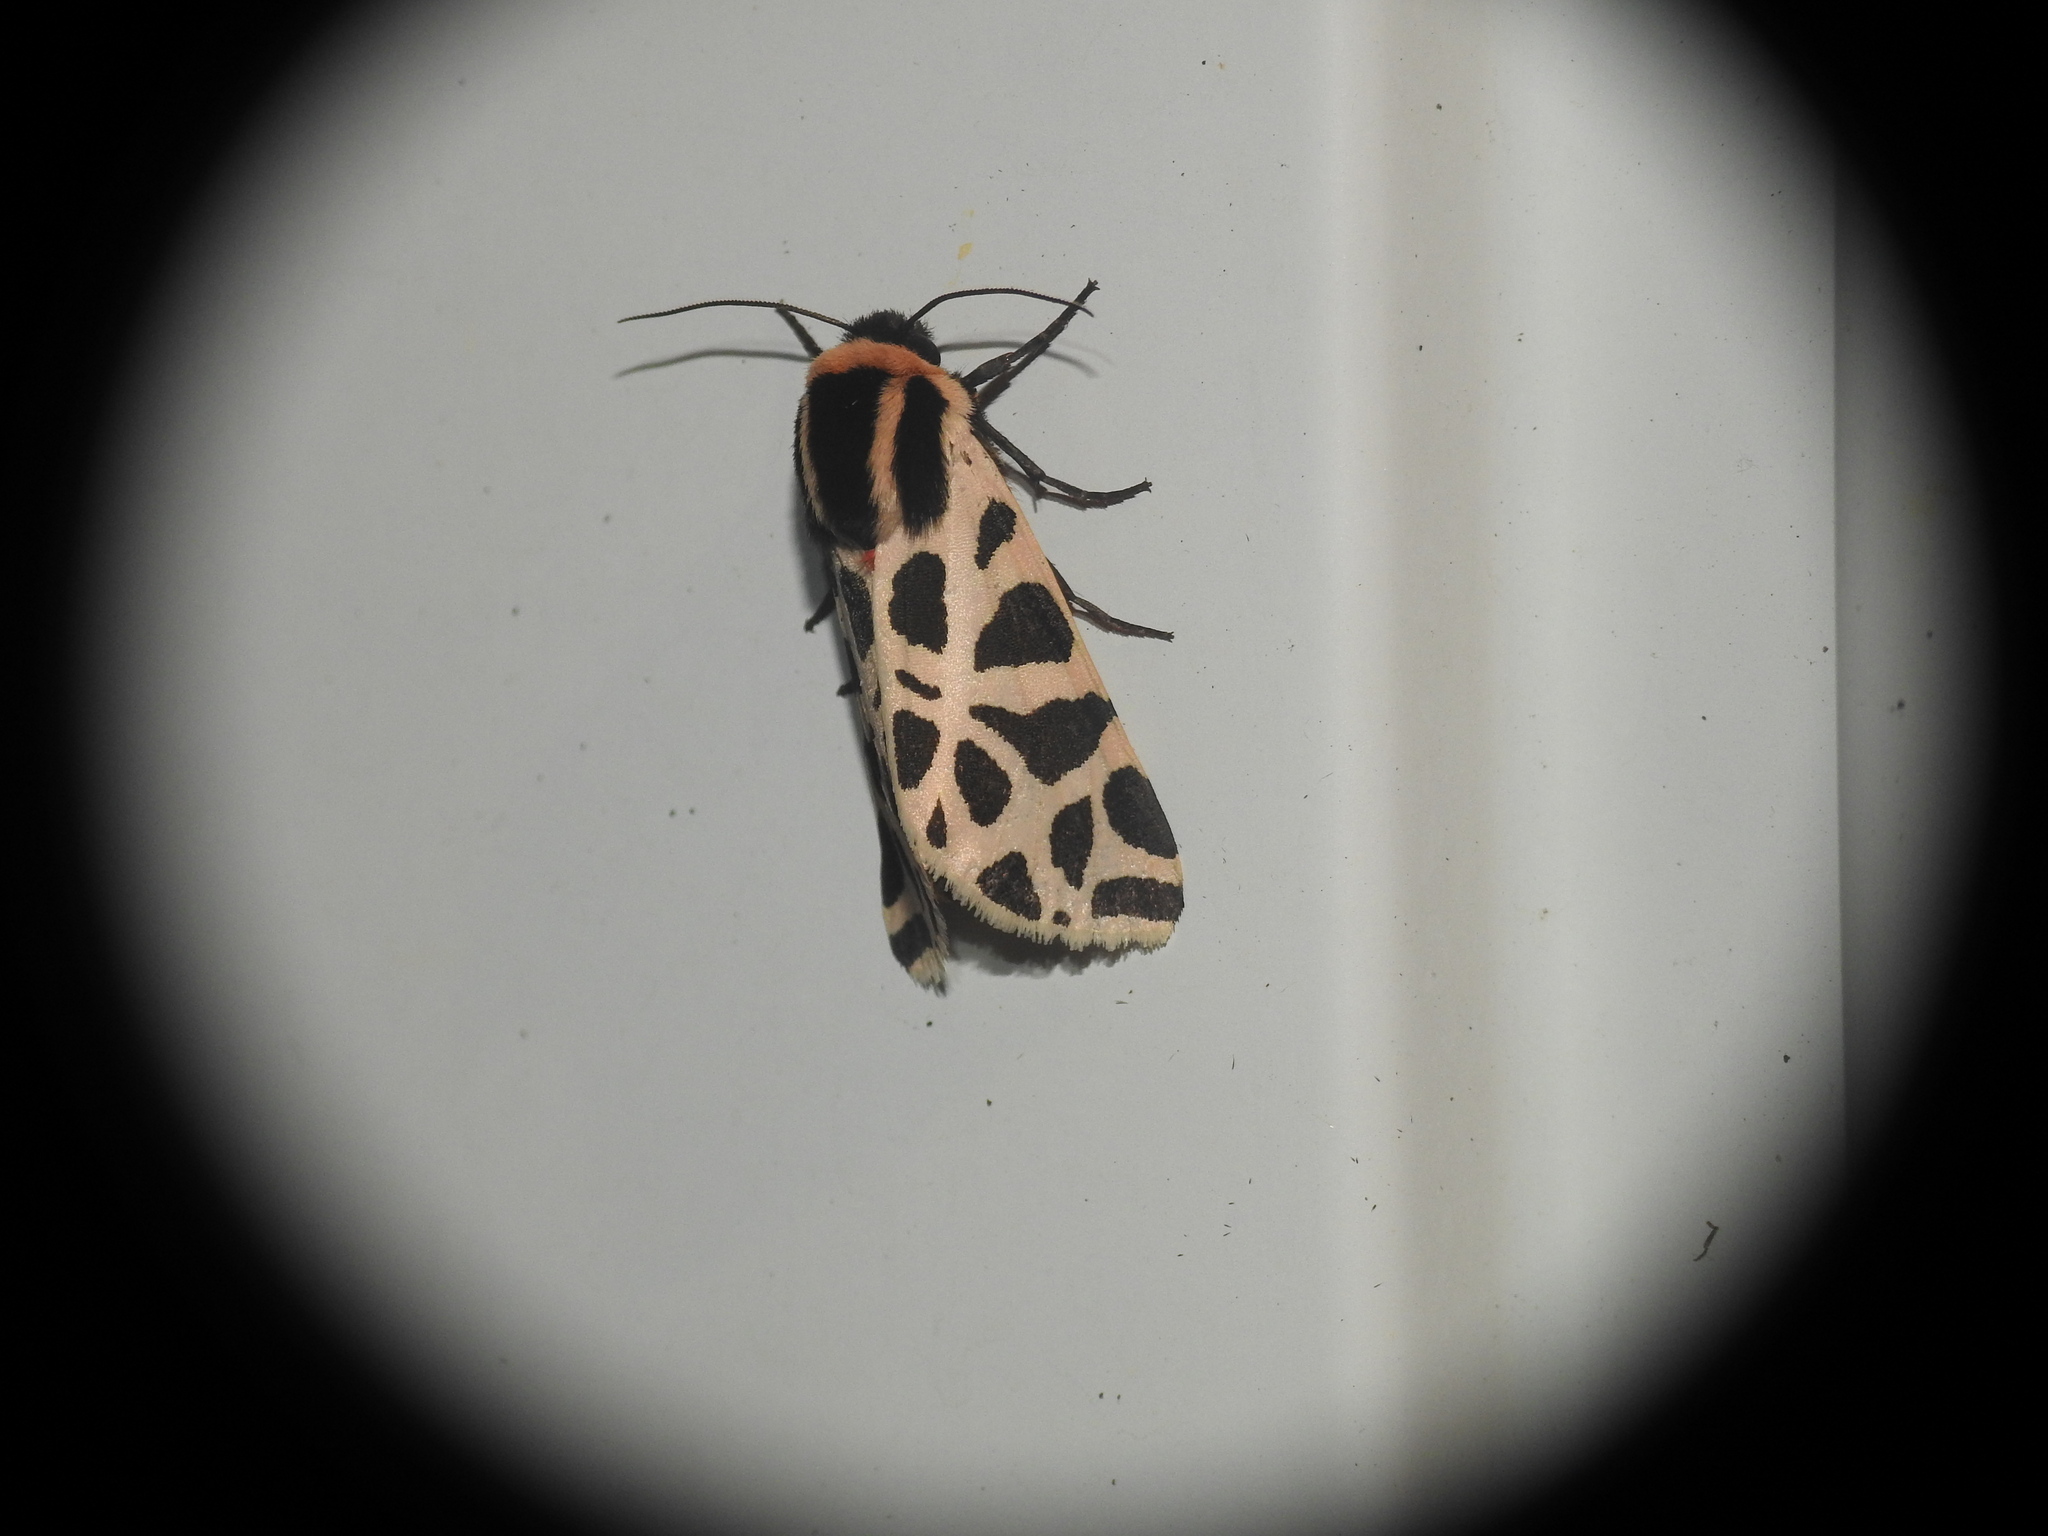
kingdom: Animalia
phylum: Arthropoda
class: Insecta
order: Lepidoptera
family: Erebidae
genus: Cymbalophora
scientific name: Cymbalophora pudica
